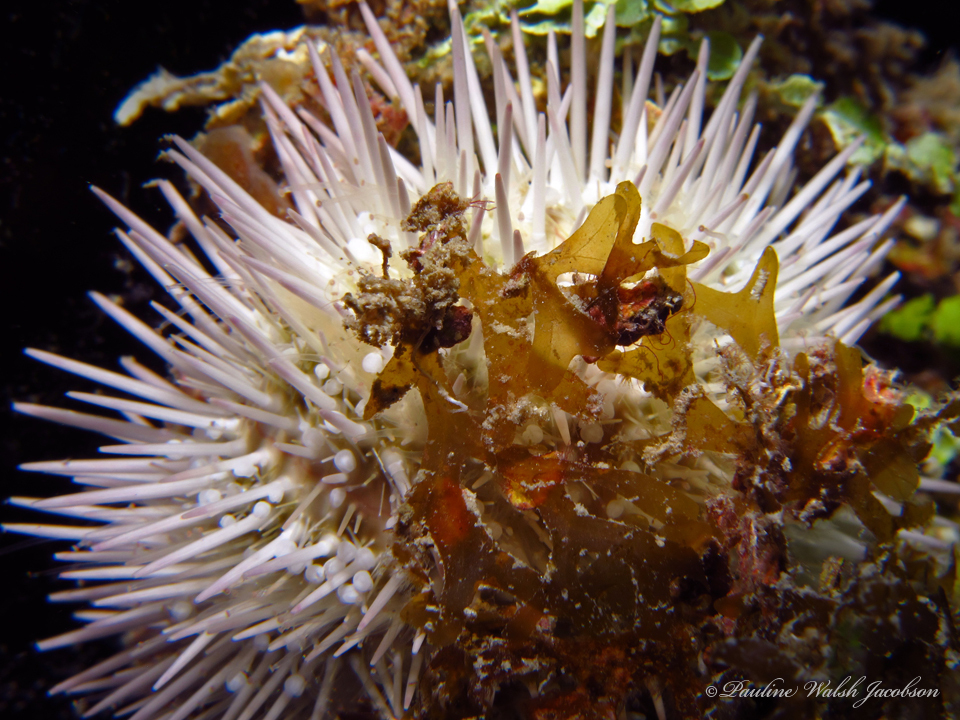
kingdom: Animalia
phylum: Echinodermata
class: Echinoidea
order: Camarodonta
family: Toxopneustidae
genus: Lytechinus
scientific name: Lytechinus variegatus
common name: Variegated urchin
